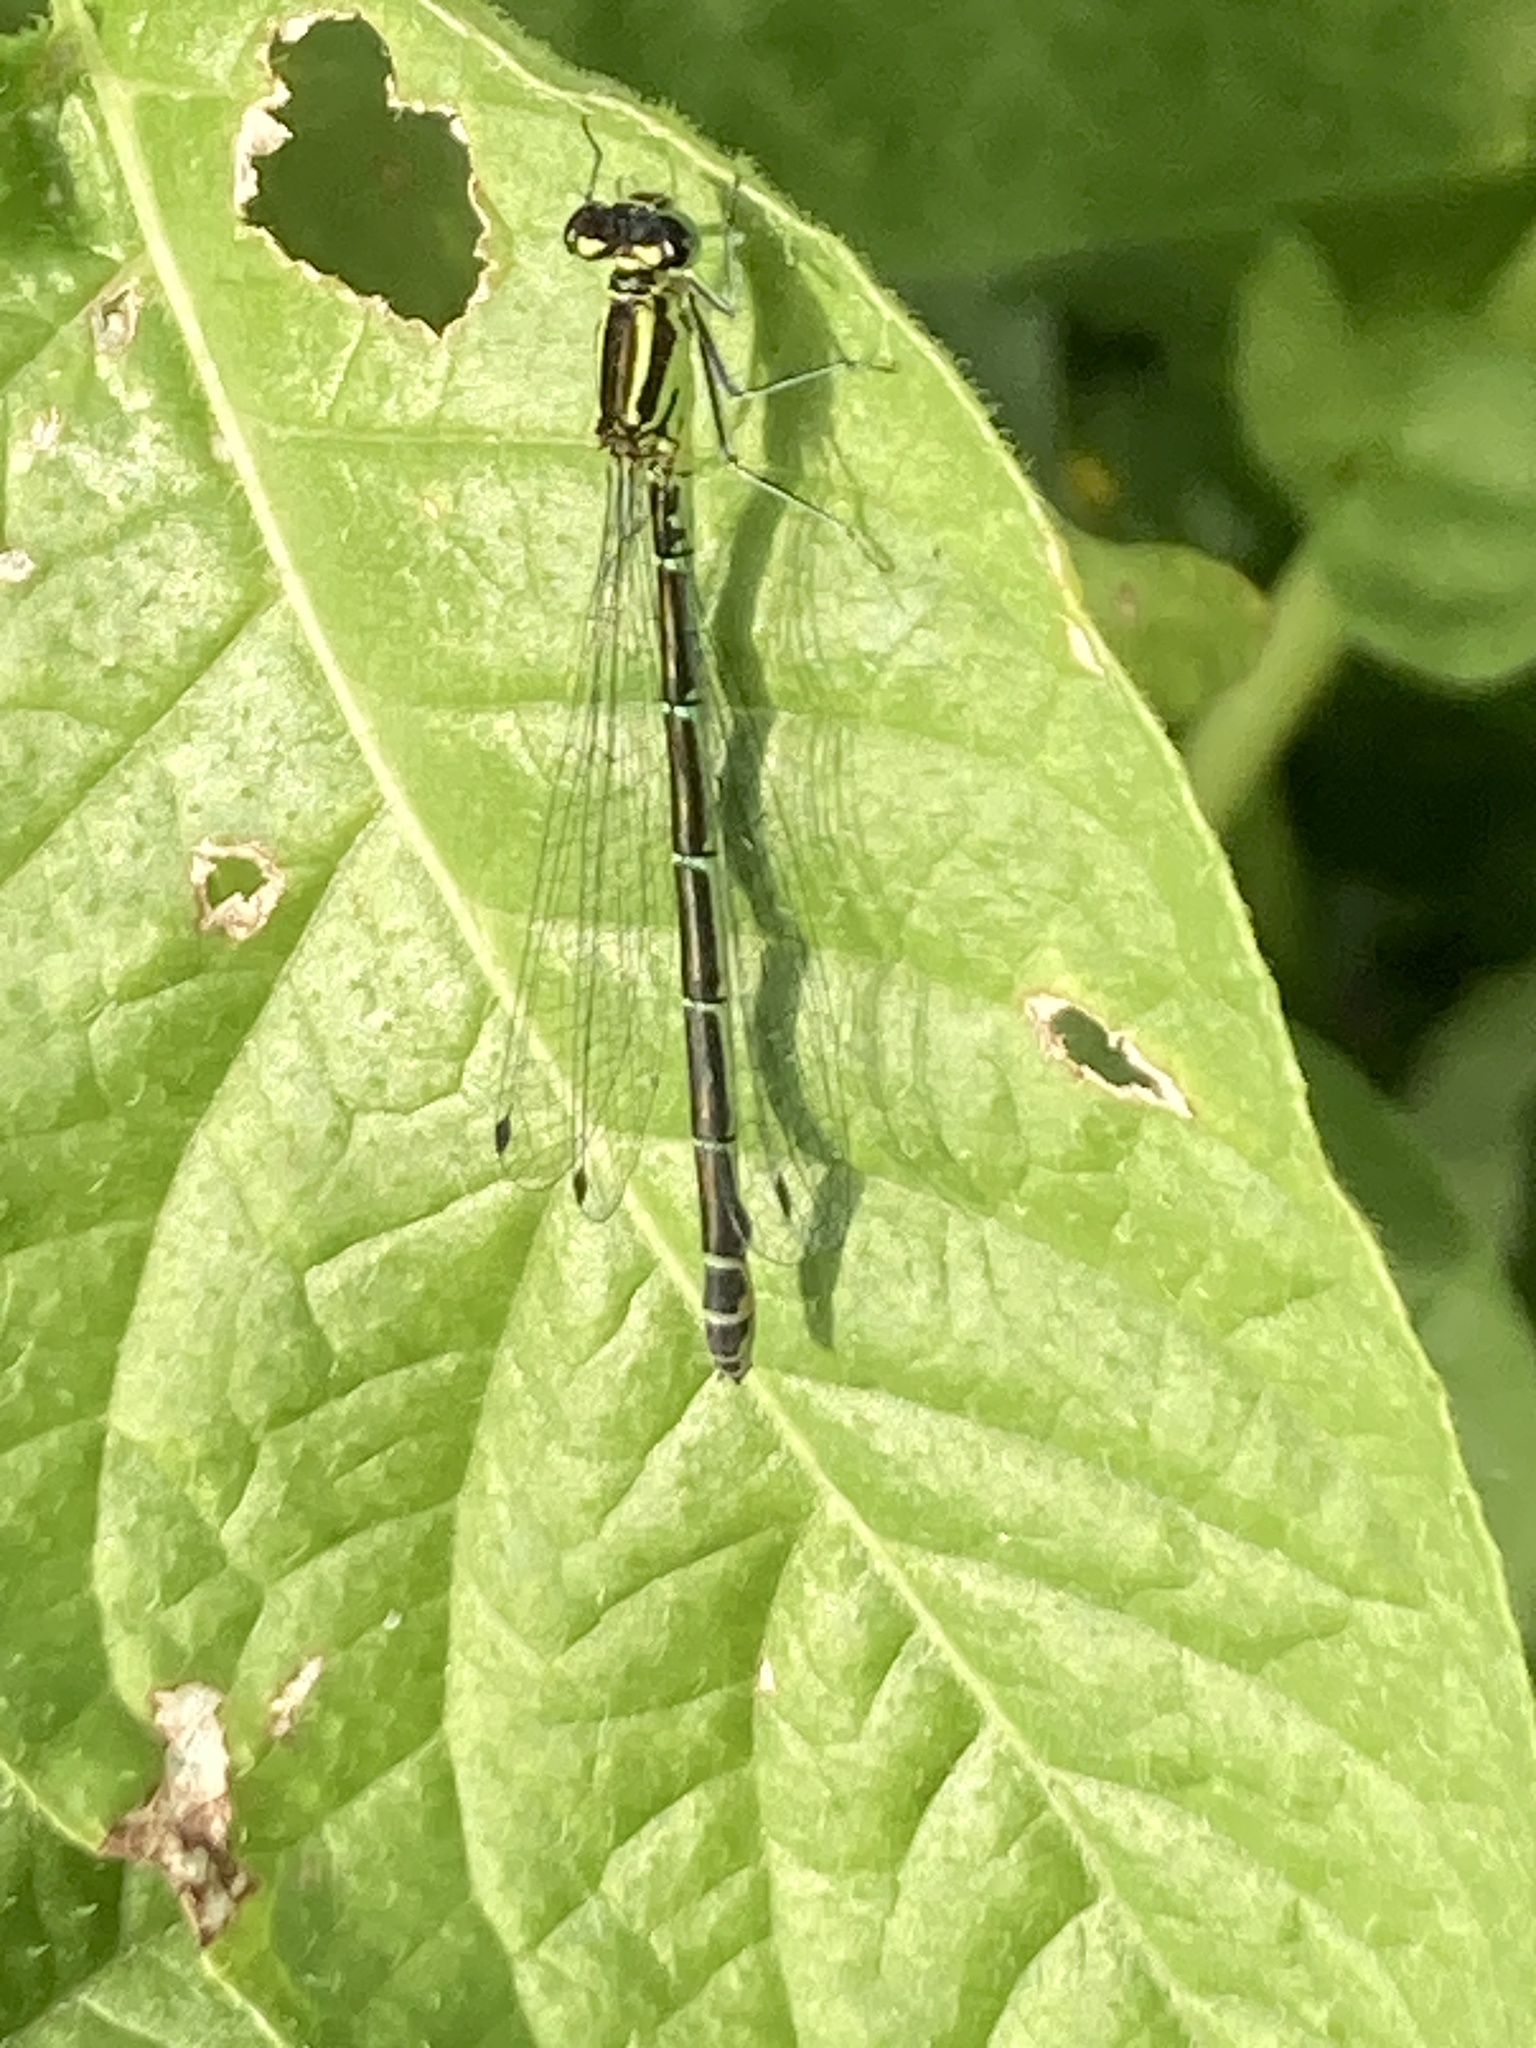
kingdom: Animalia
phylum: Arthropoda
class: Insecta
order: Odonata
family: Coenagrionidae
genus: Coenagrion
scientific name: Coenagrion puella
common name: Azure damselfly
